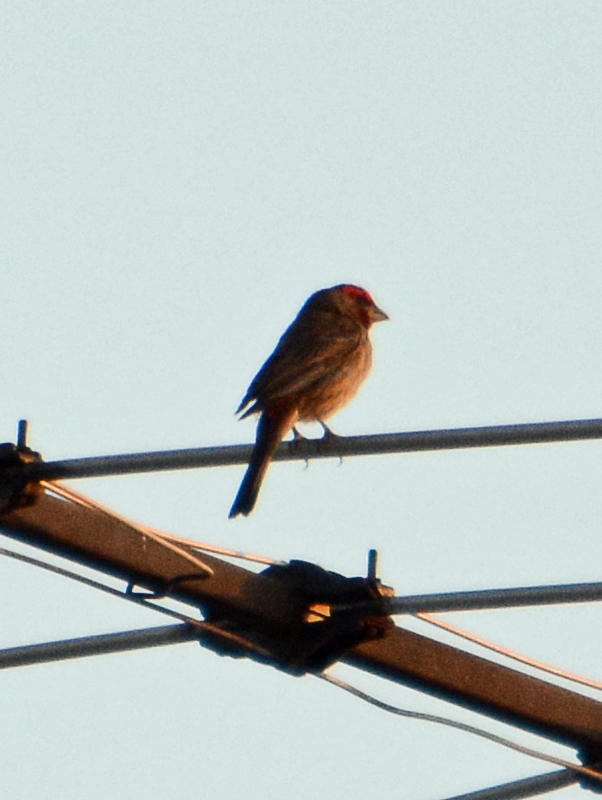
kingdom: Animalia
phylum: Chordata
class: Aves
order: Passeriformes
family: Fringillidae
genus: Haemorhous
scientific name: Haemorhous mexicanus
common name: House finch
